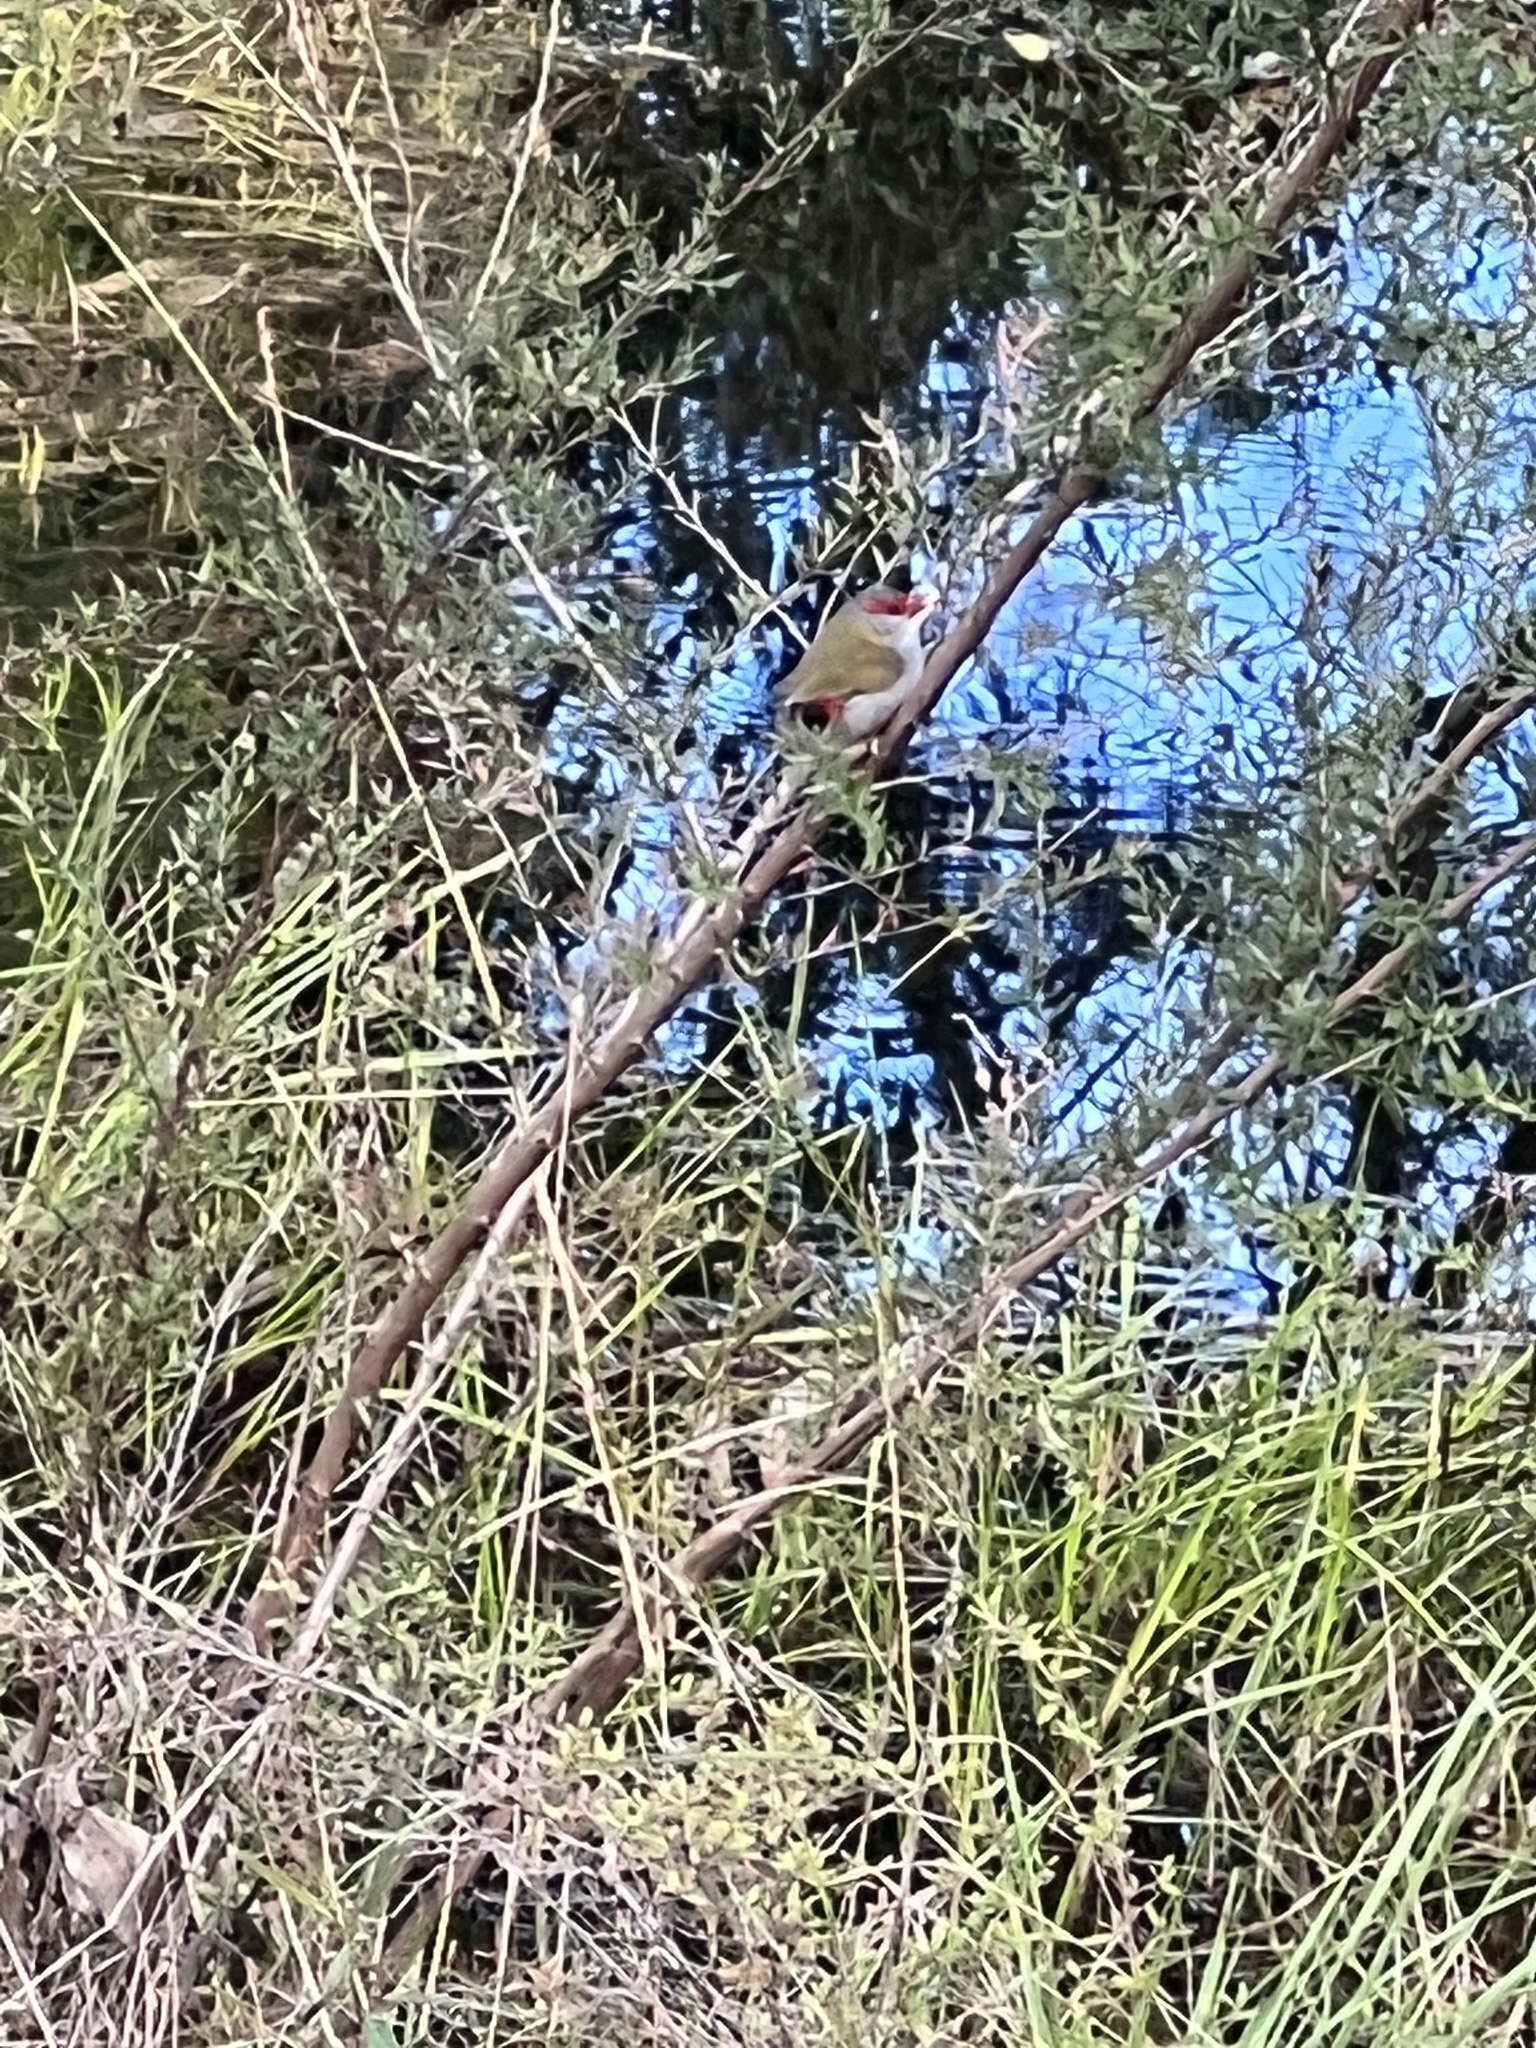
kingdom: Animalia
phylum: Chordata
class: Aves
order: Passeriformes
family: Estrildidae
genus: Neochmia
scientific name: Neochmia temporalis
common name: Red-browed finch
